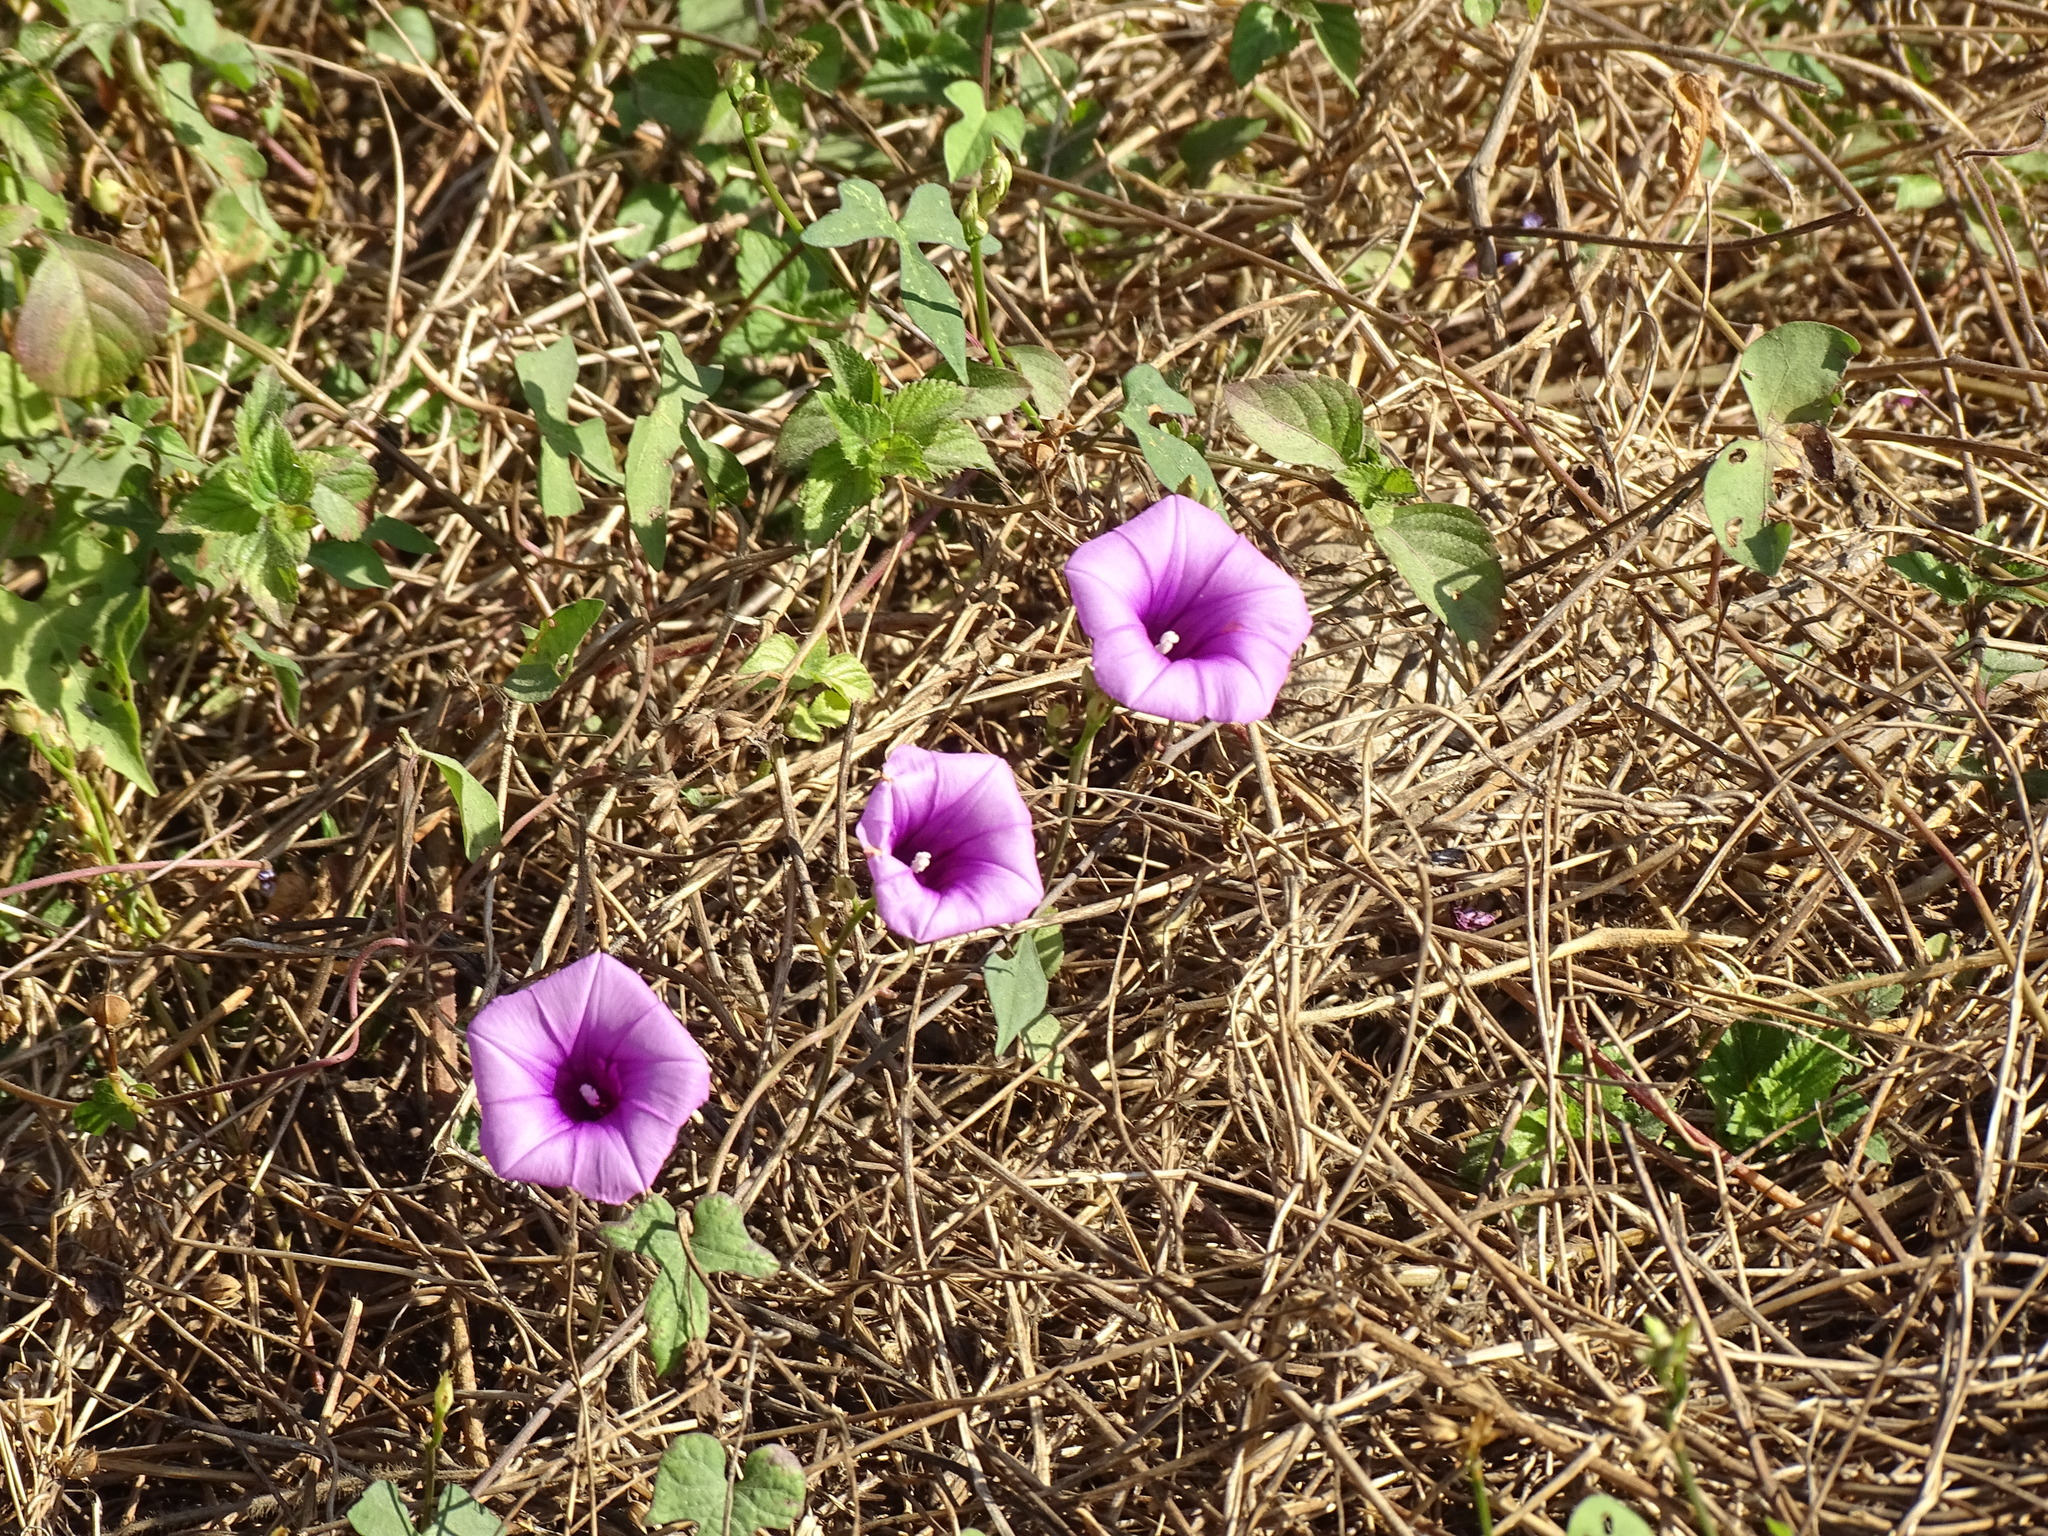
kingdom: Plantae
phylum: Tracheophyta
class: Magnoliopsida
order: Solanales
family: Convolvulaceae
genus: Ipomoea
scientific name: Ipomoea trifida
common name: Cotton morningglory
